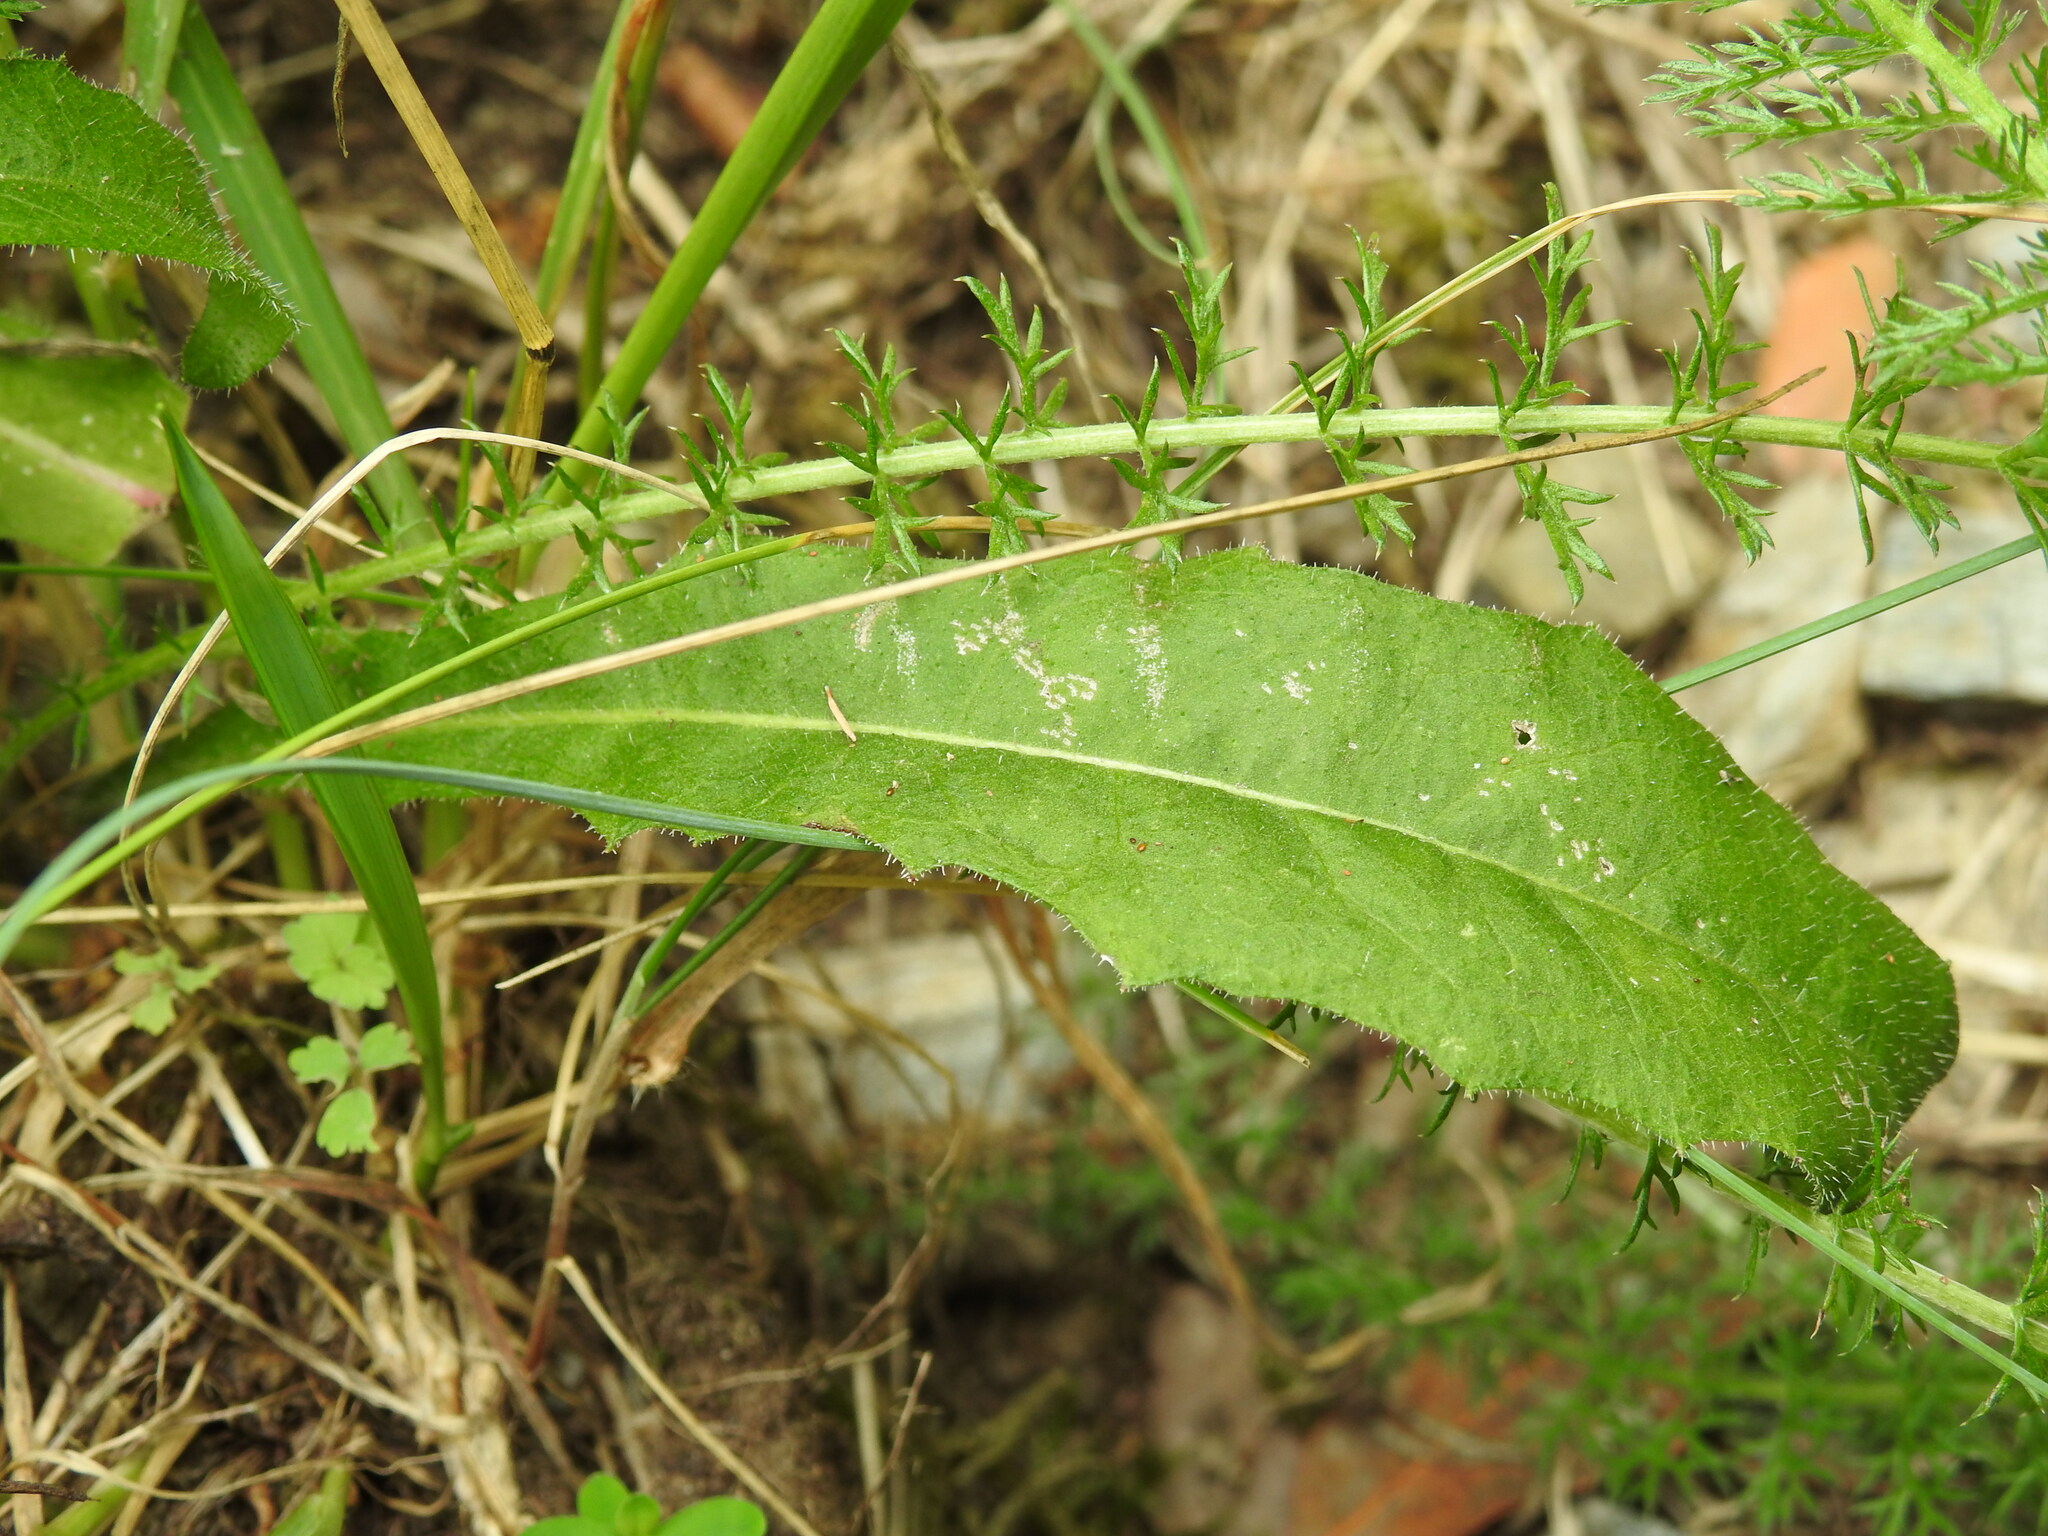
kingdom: Plantae
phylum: Tracheophyta
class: Magnoliopsida
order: Asterales
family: Asteraceae
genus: Picris
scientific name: Picris hieracioides
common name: Hawkweed oxtongue
